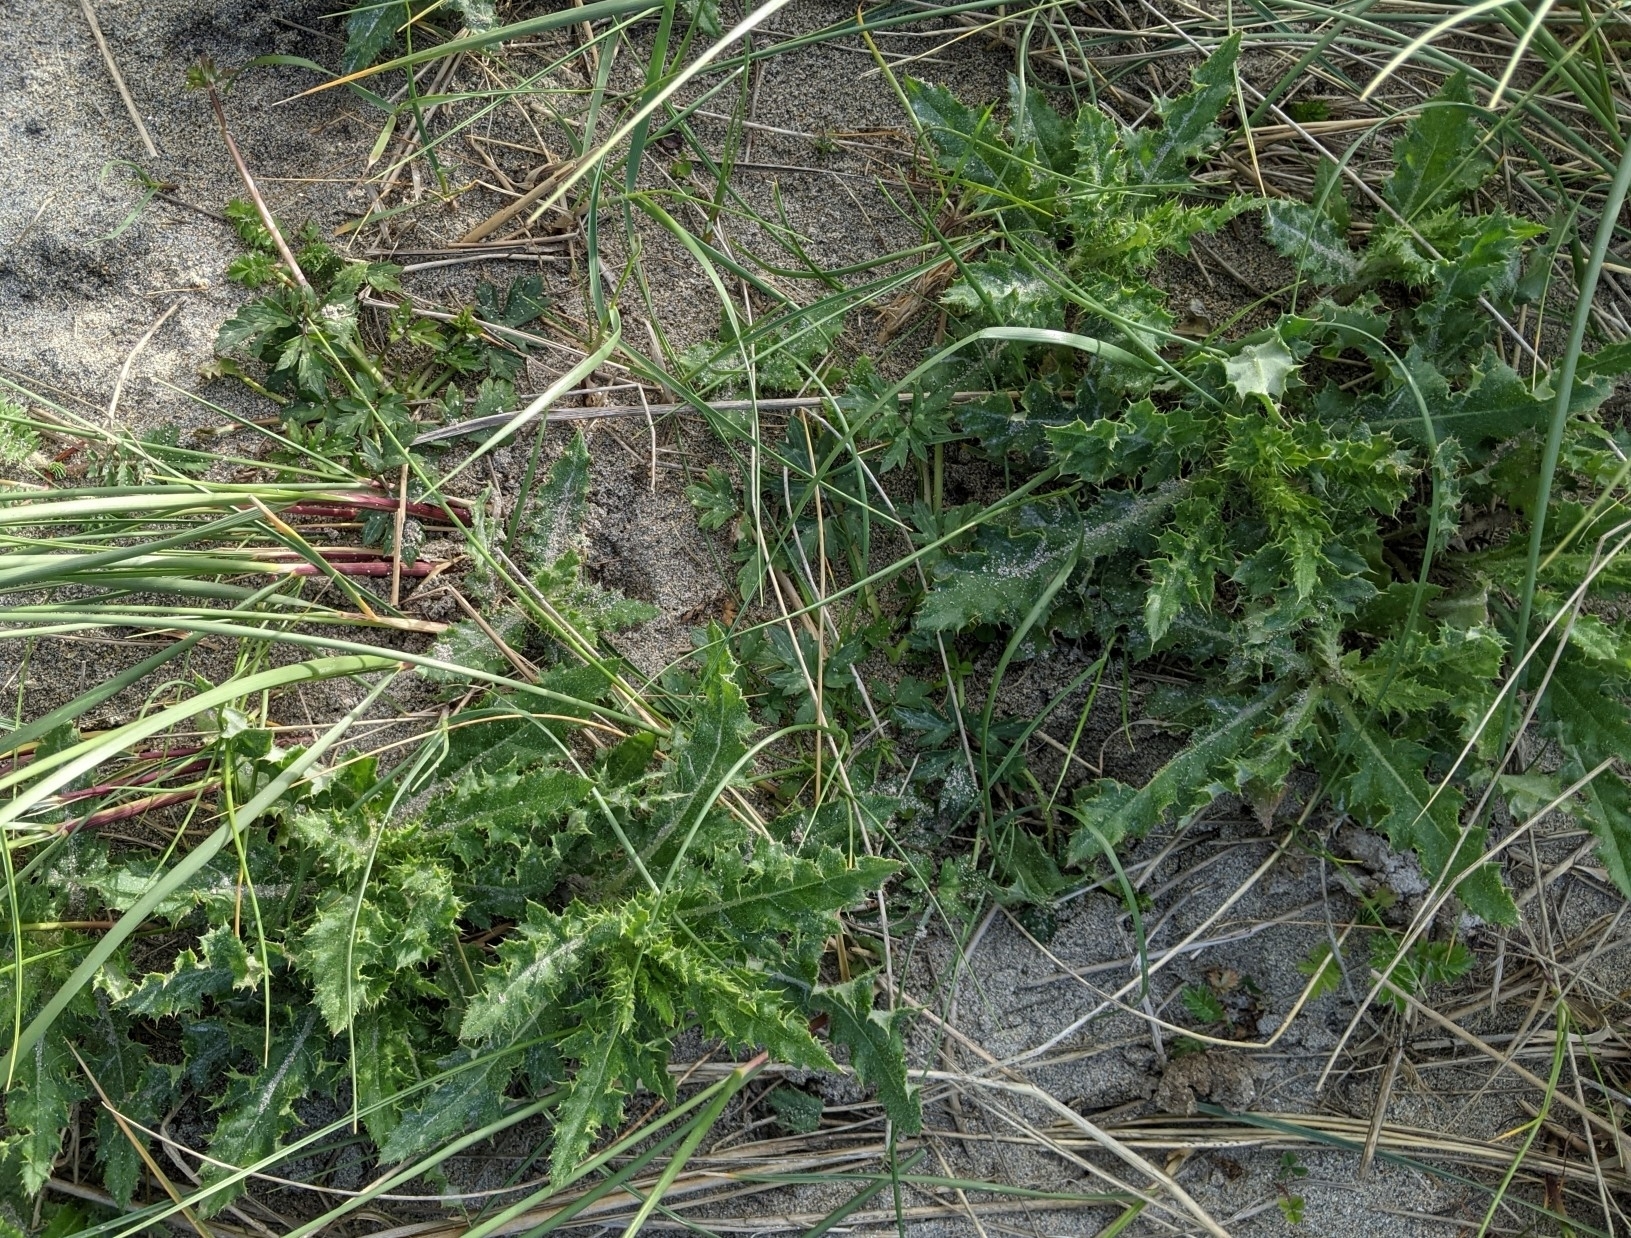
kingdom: Plantae
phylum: Tracheophyta
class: Magnoliopsida
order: Asterales
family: Asteraceae
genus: Cirsium
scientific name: Cirsium arvense
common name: Creeping thistle
